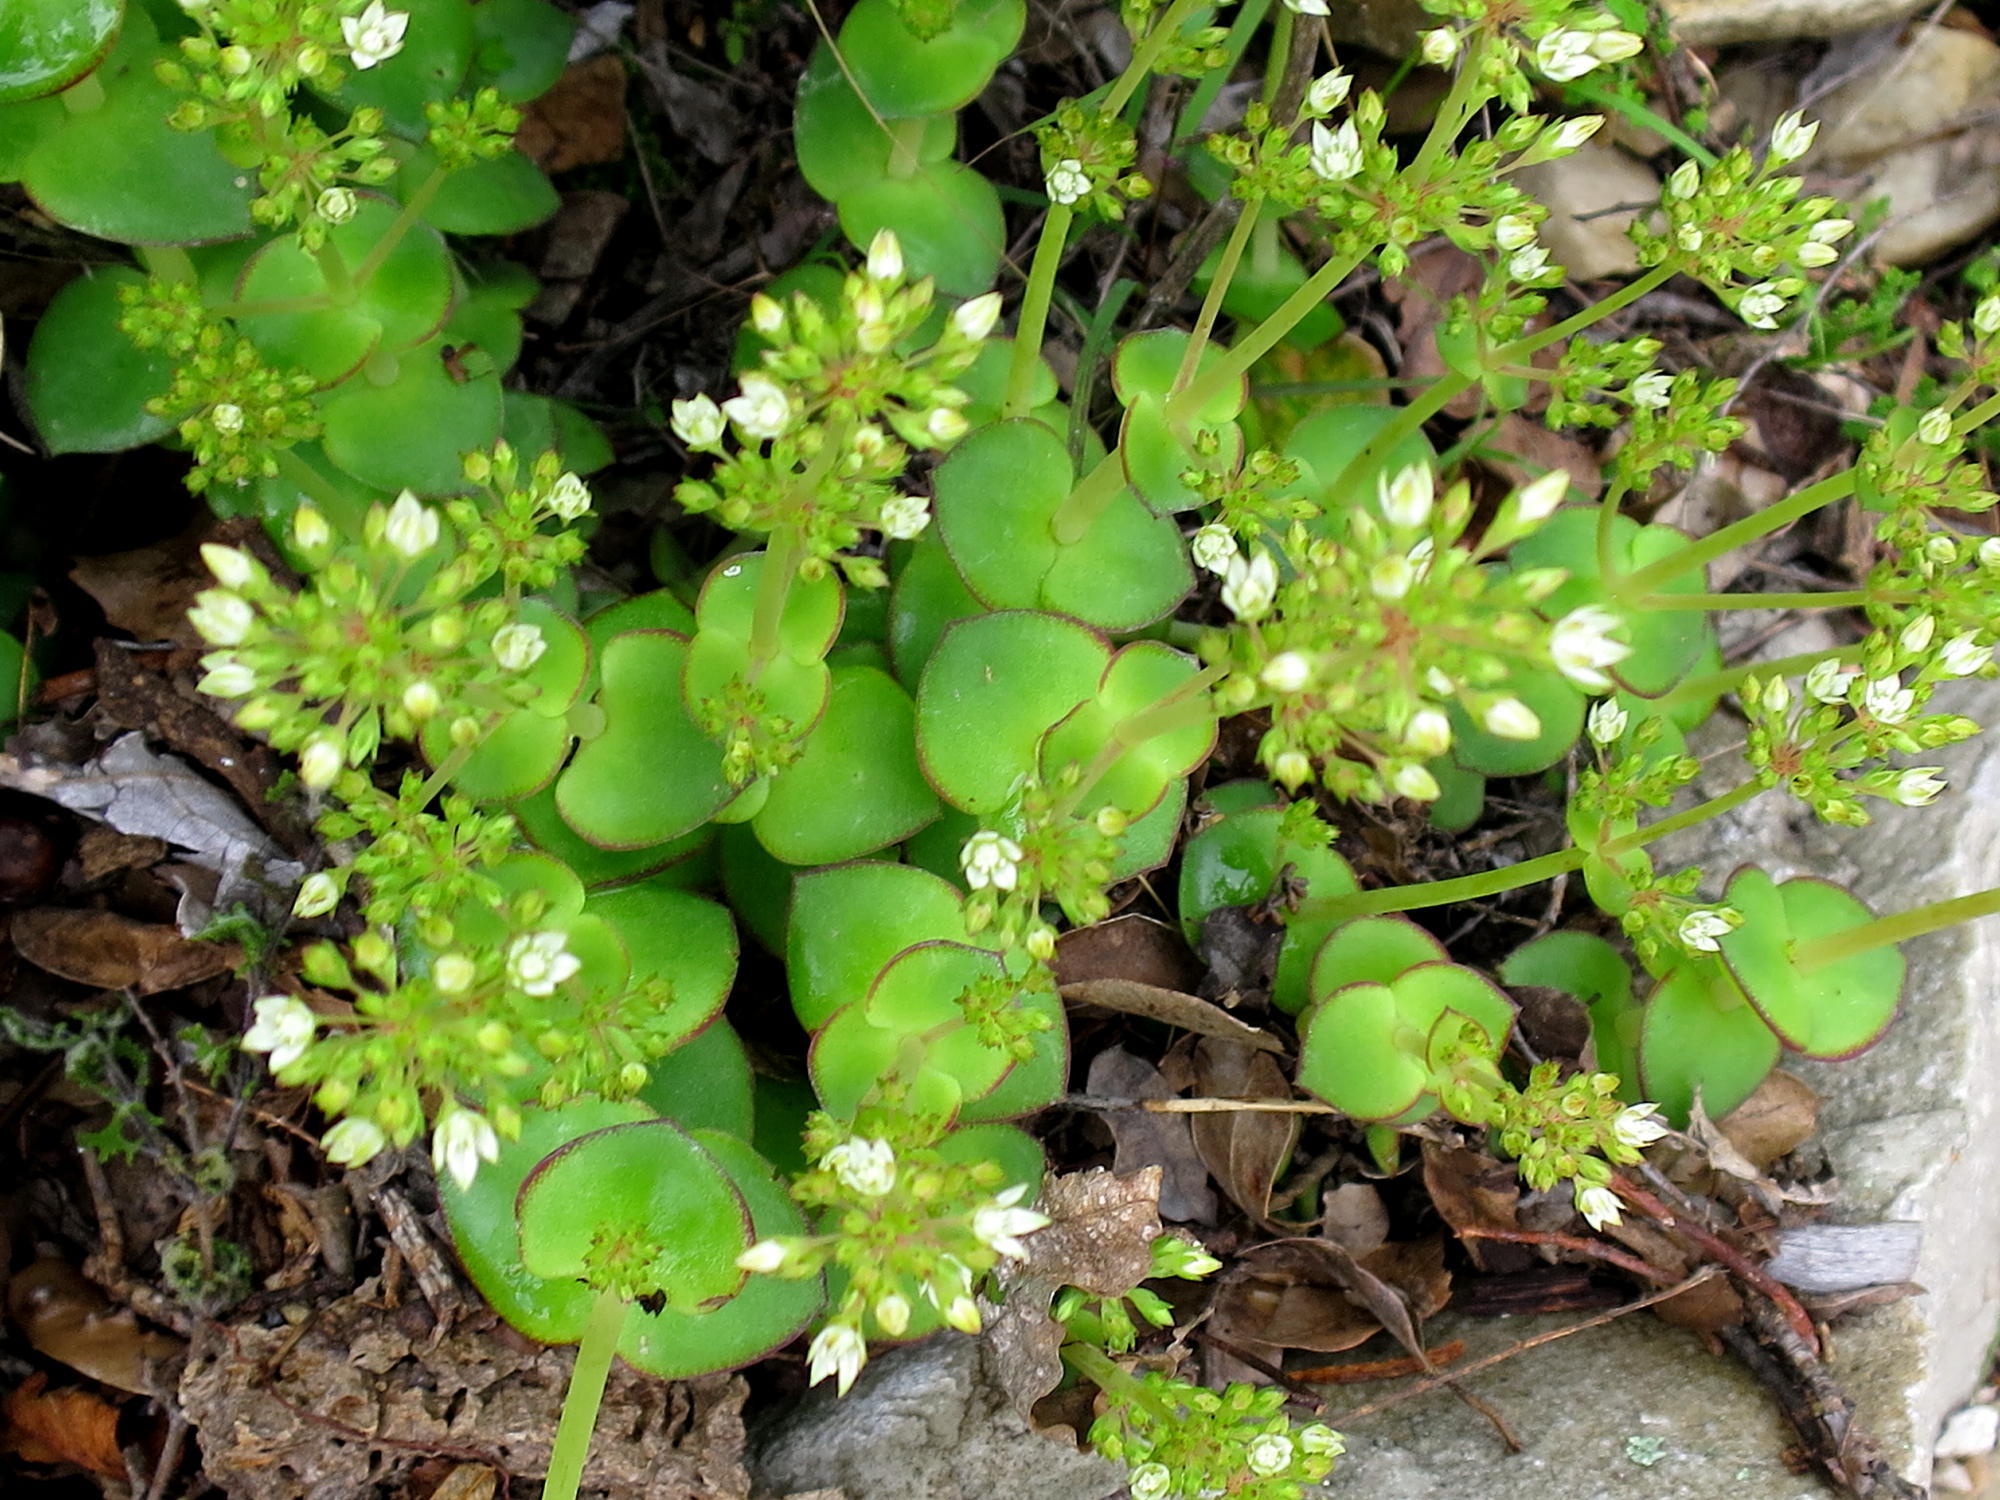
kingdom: Plantae
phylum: Tracheophyta
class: Magnoliopsida
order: Saxifragales
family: Crassulaceae
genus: Crassula
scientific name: Crassula pellucida
